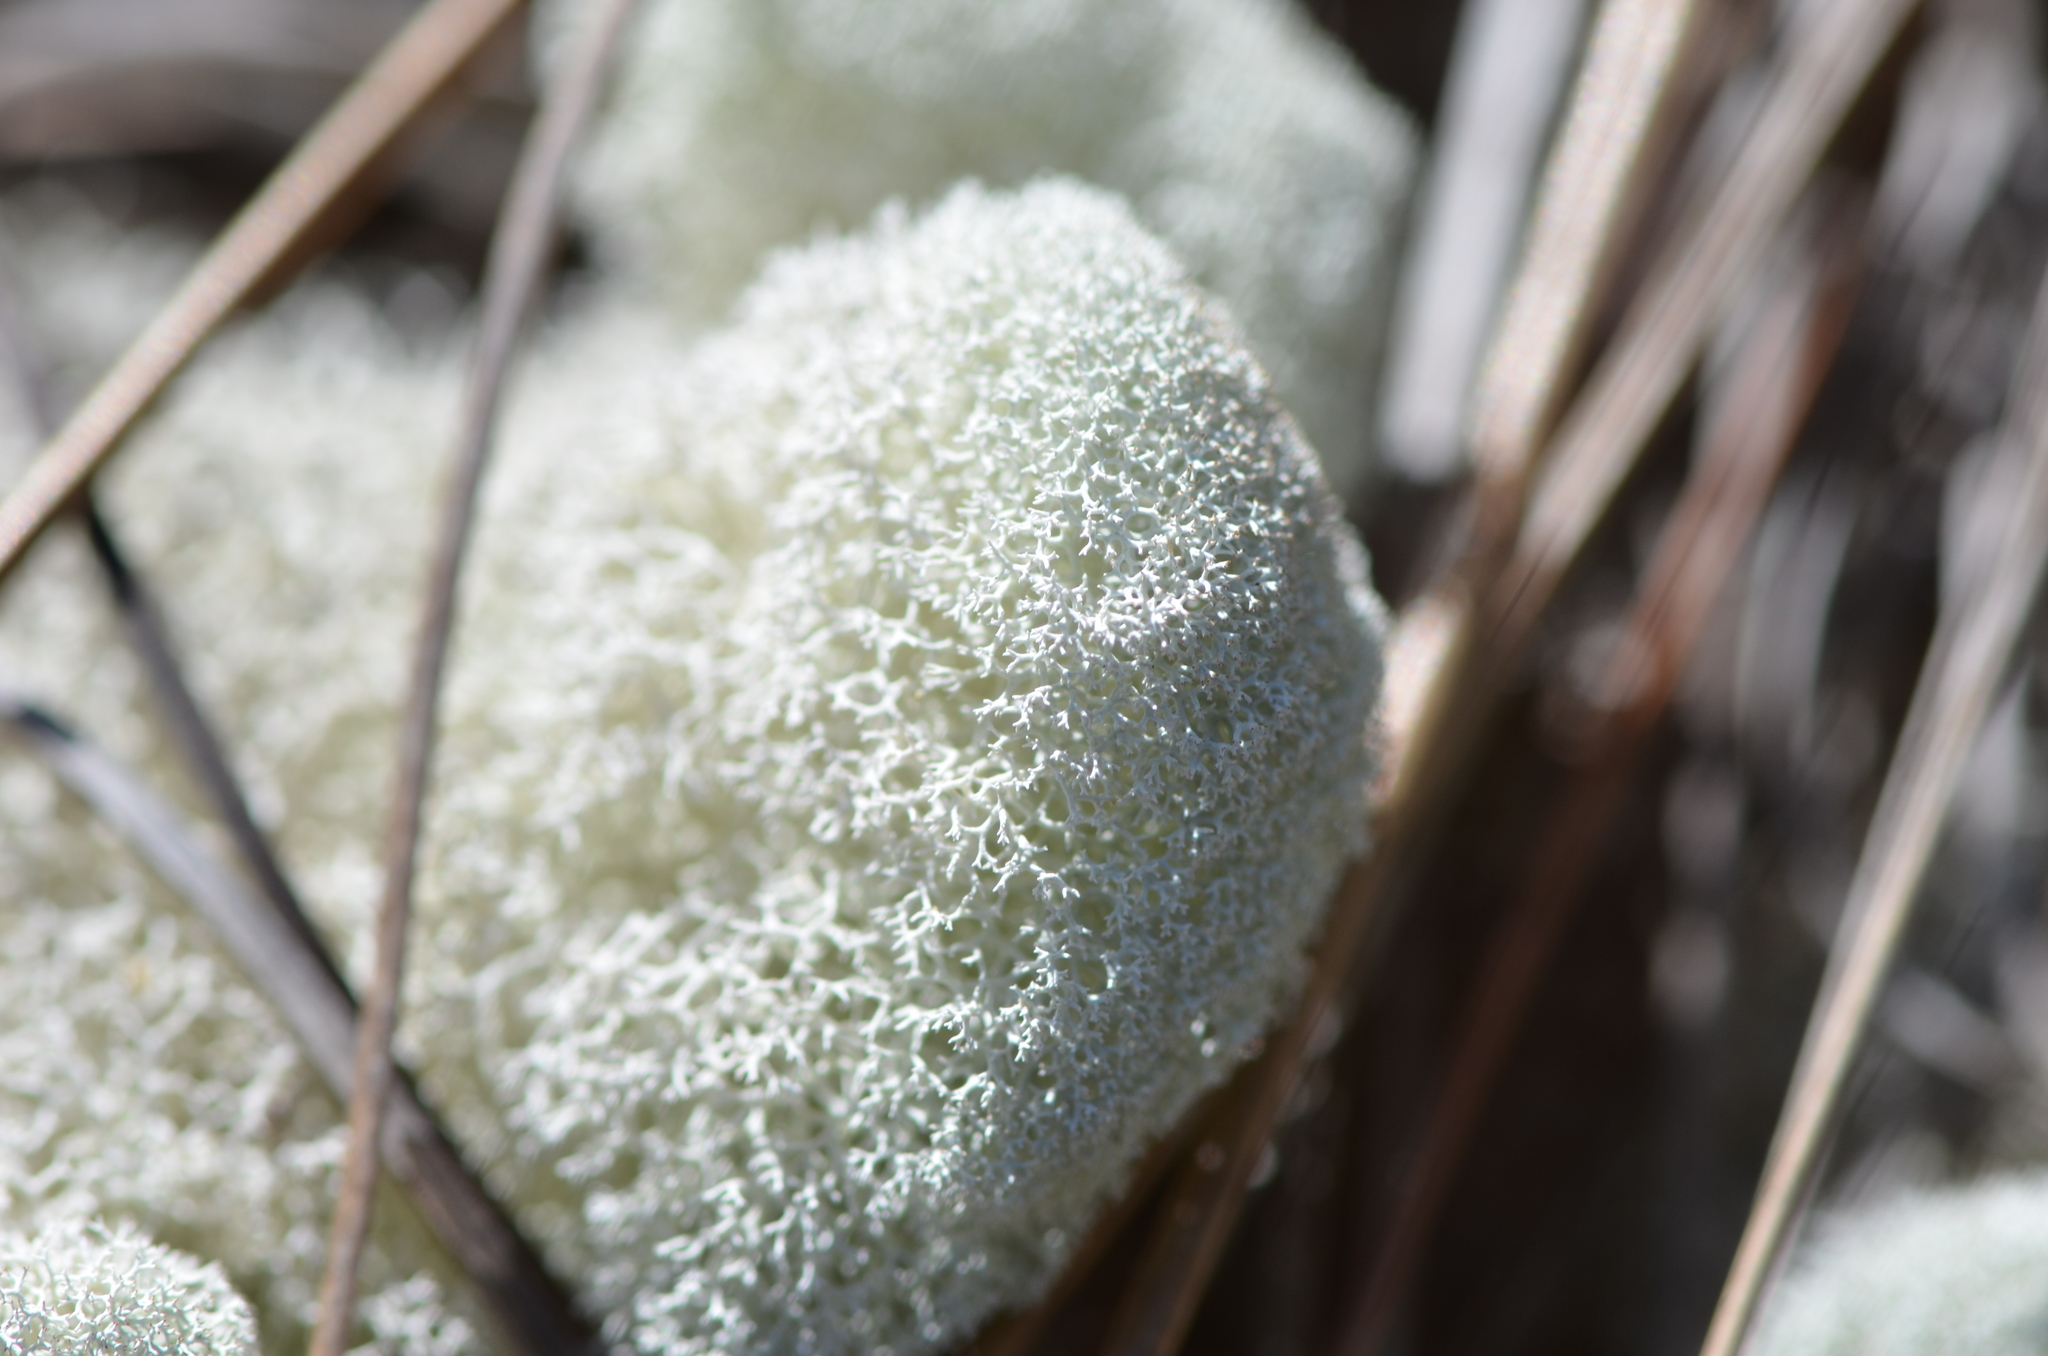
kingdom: Fungi
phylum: Ascomycota
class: Lecanoromycetes
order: Lecanorales
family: Cladoniaceae
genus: Cladonia
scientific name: Cladonia evansii
